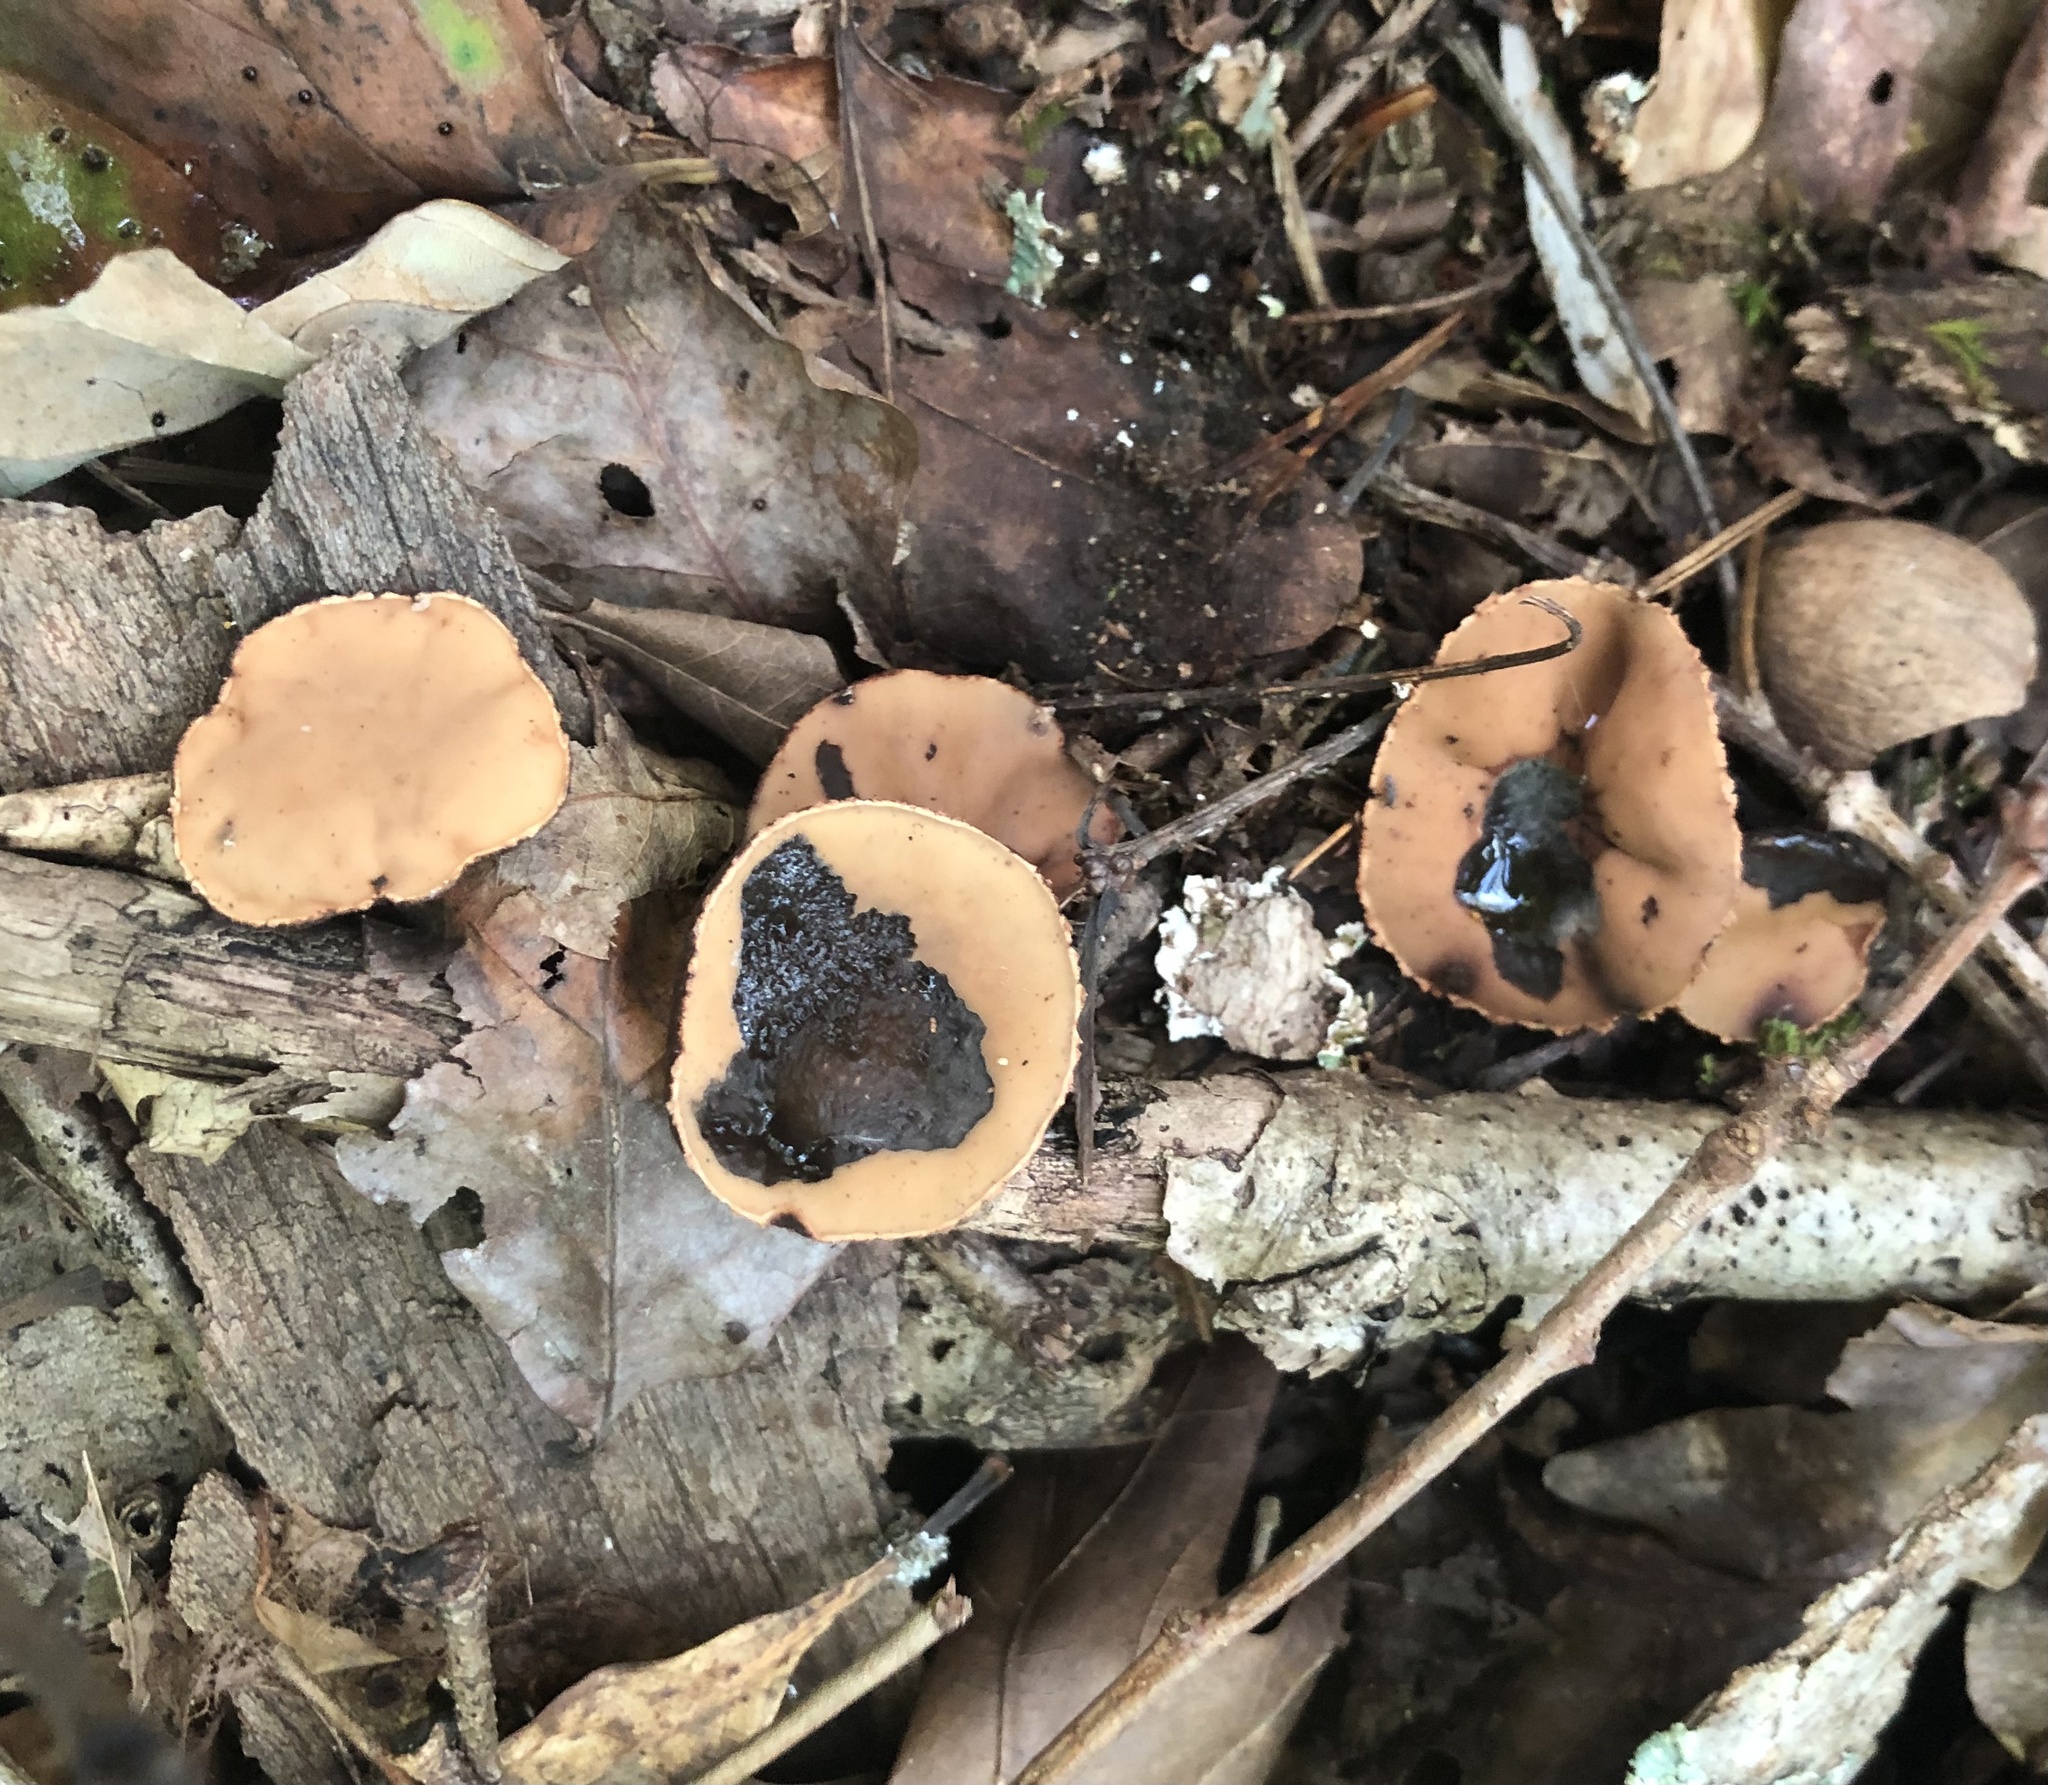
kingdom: Fungi
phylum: Ascomycota
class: Pezizomycetes
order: Pezizales
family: Sarcosomataceae
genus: Galiella
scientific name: Galiella rufa
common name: Hairy rubber cup
